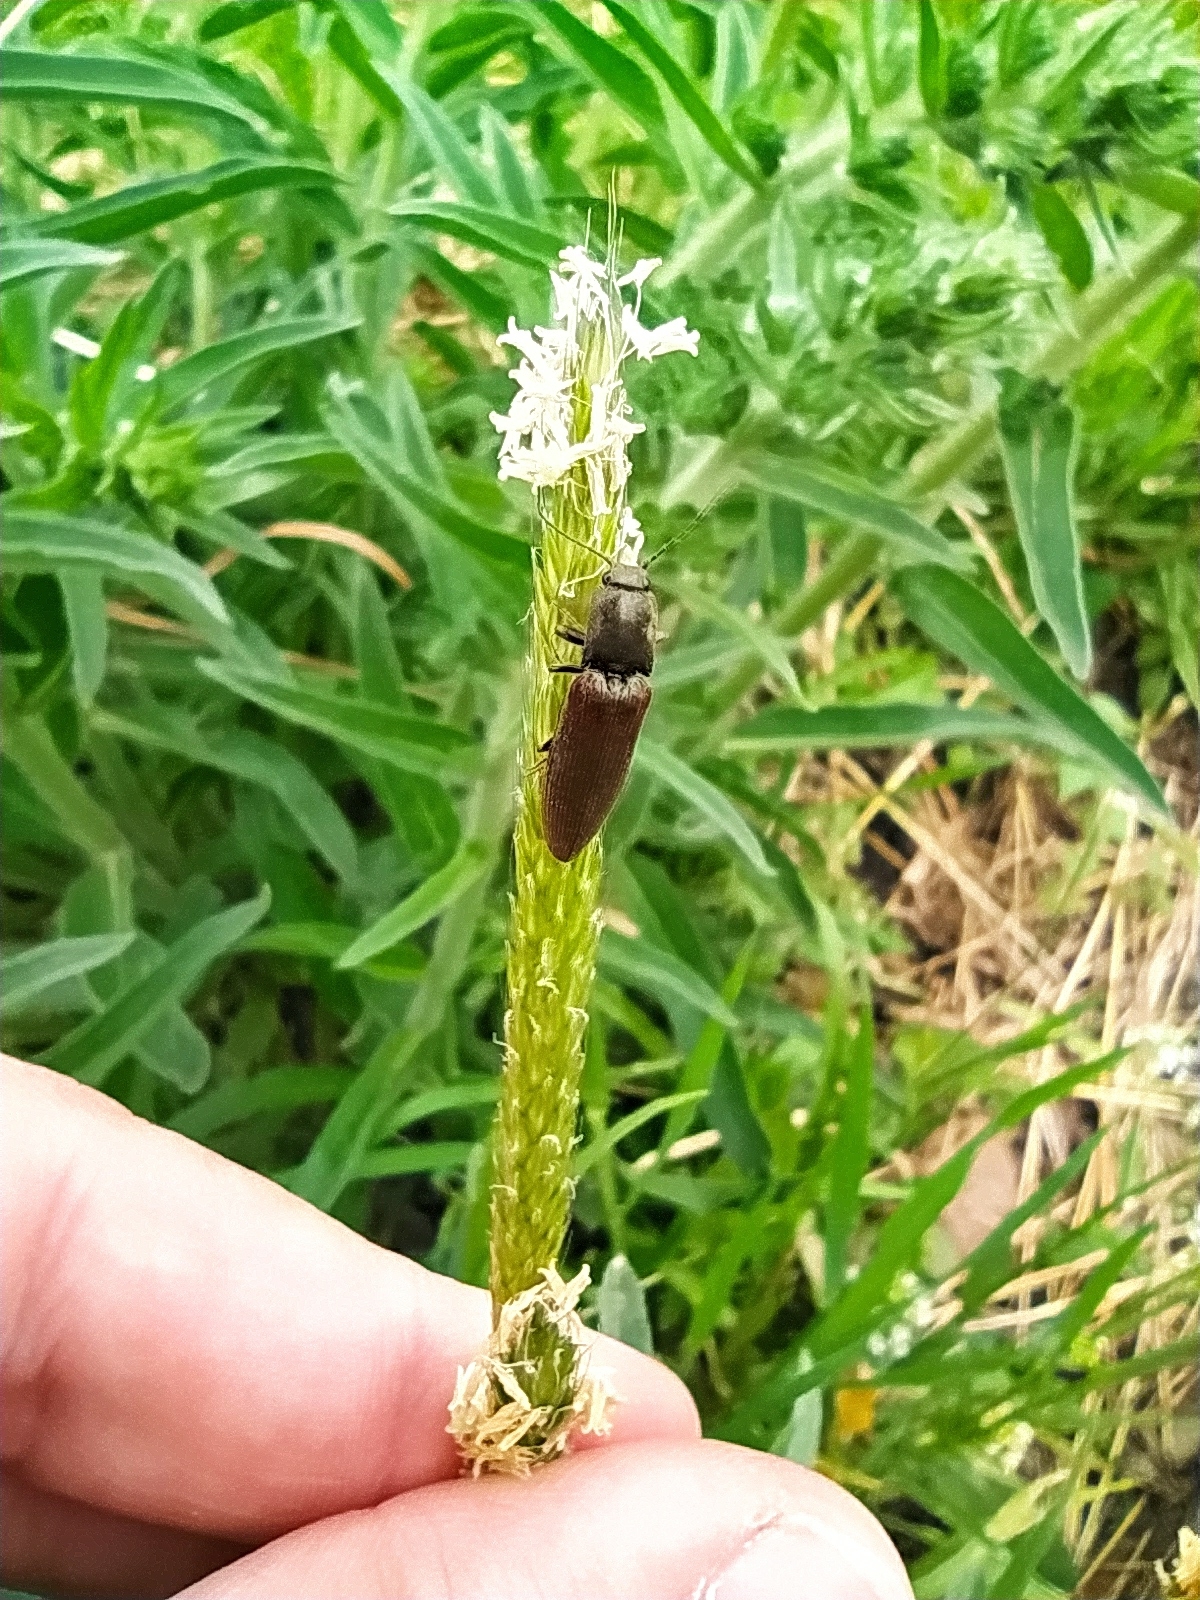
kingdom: Animalia
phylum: Arthropoda
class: Insecta
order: Coleoptera
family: Elateridae
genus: Athous
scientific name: Athous haemorrhoidalis
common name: Red-brown click beetle
